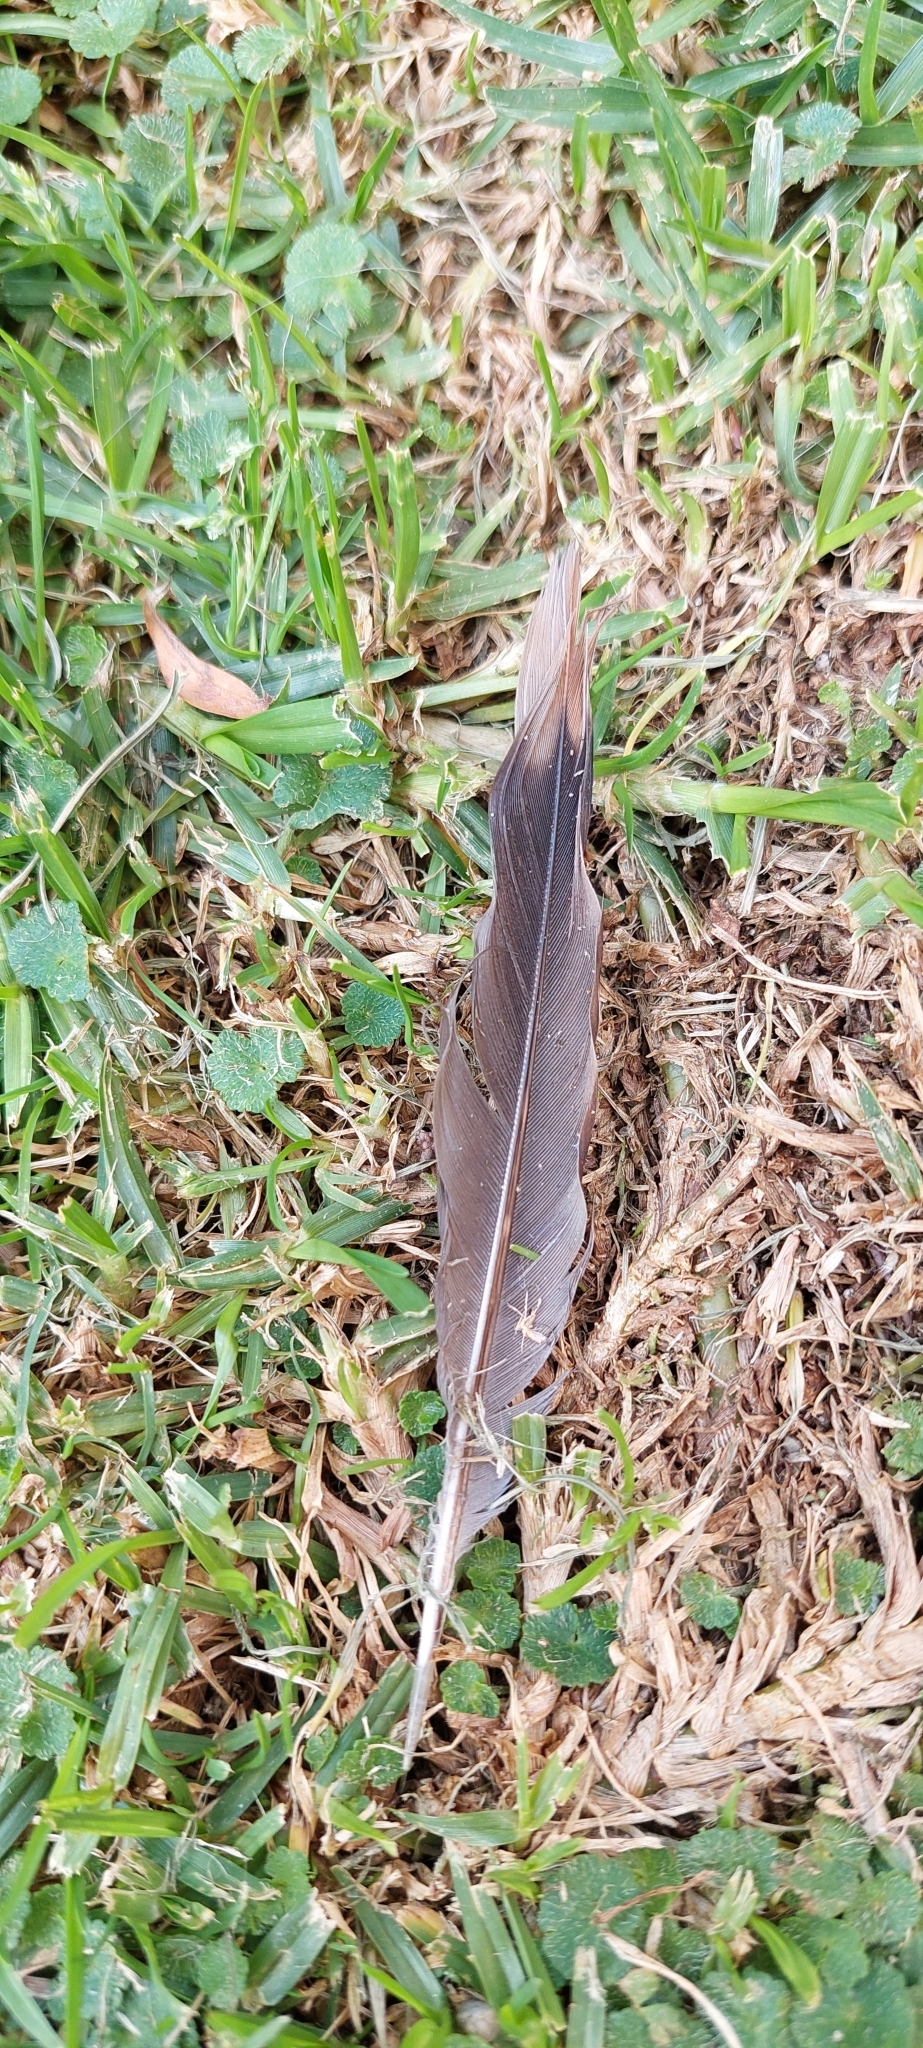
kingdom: Animalia
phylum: Chordata
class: Aves
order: Columbiformes
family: Columbidae
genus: Zenaida
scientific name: Zenaida auriculata
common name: Eared dove
